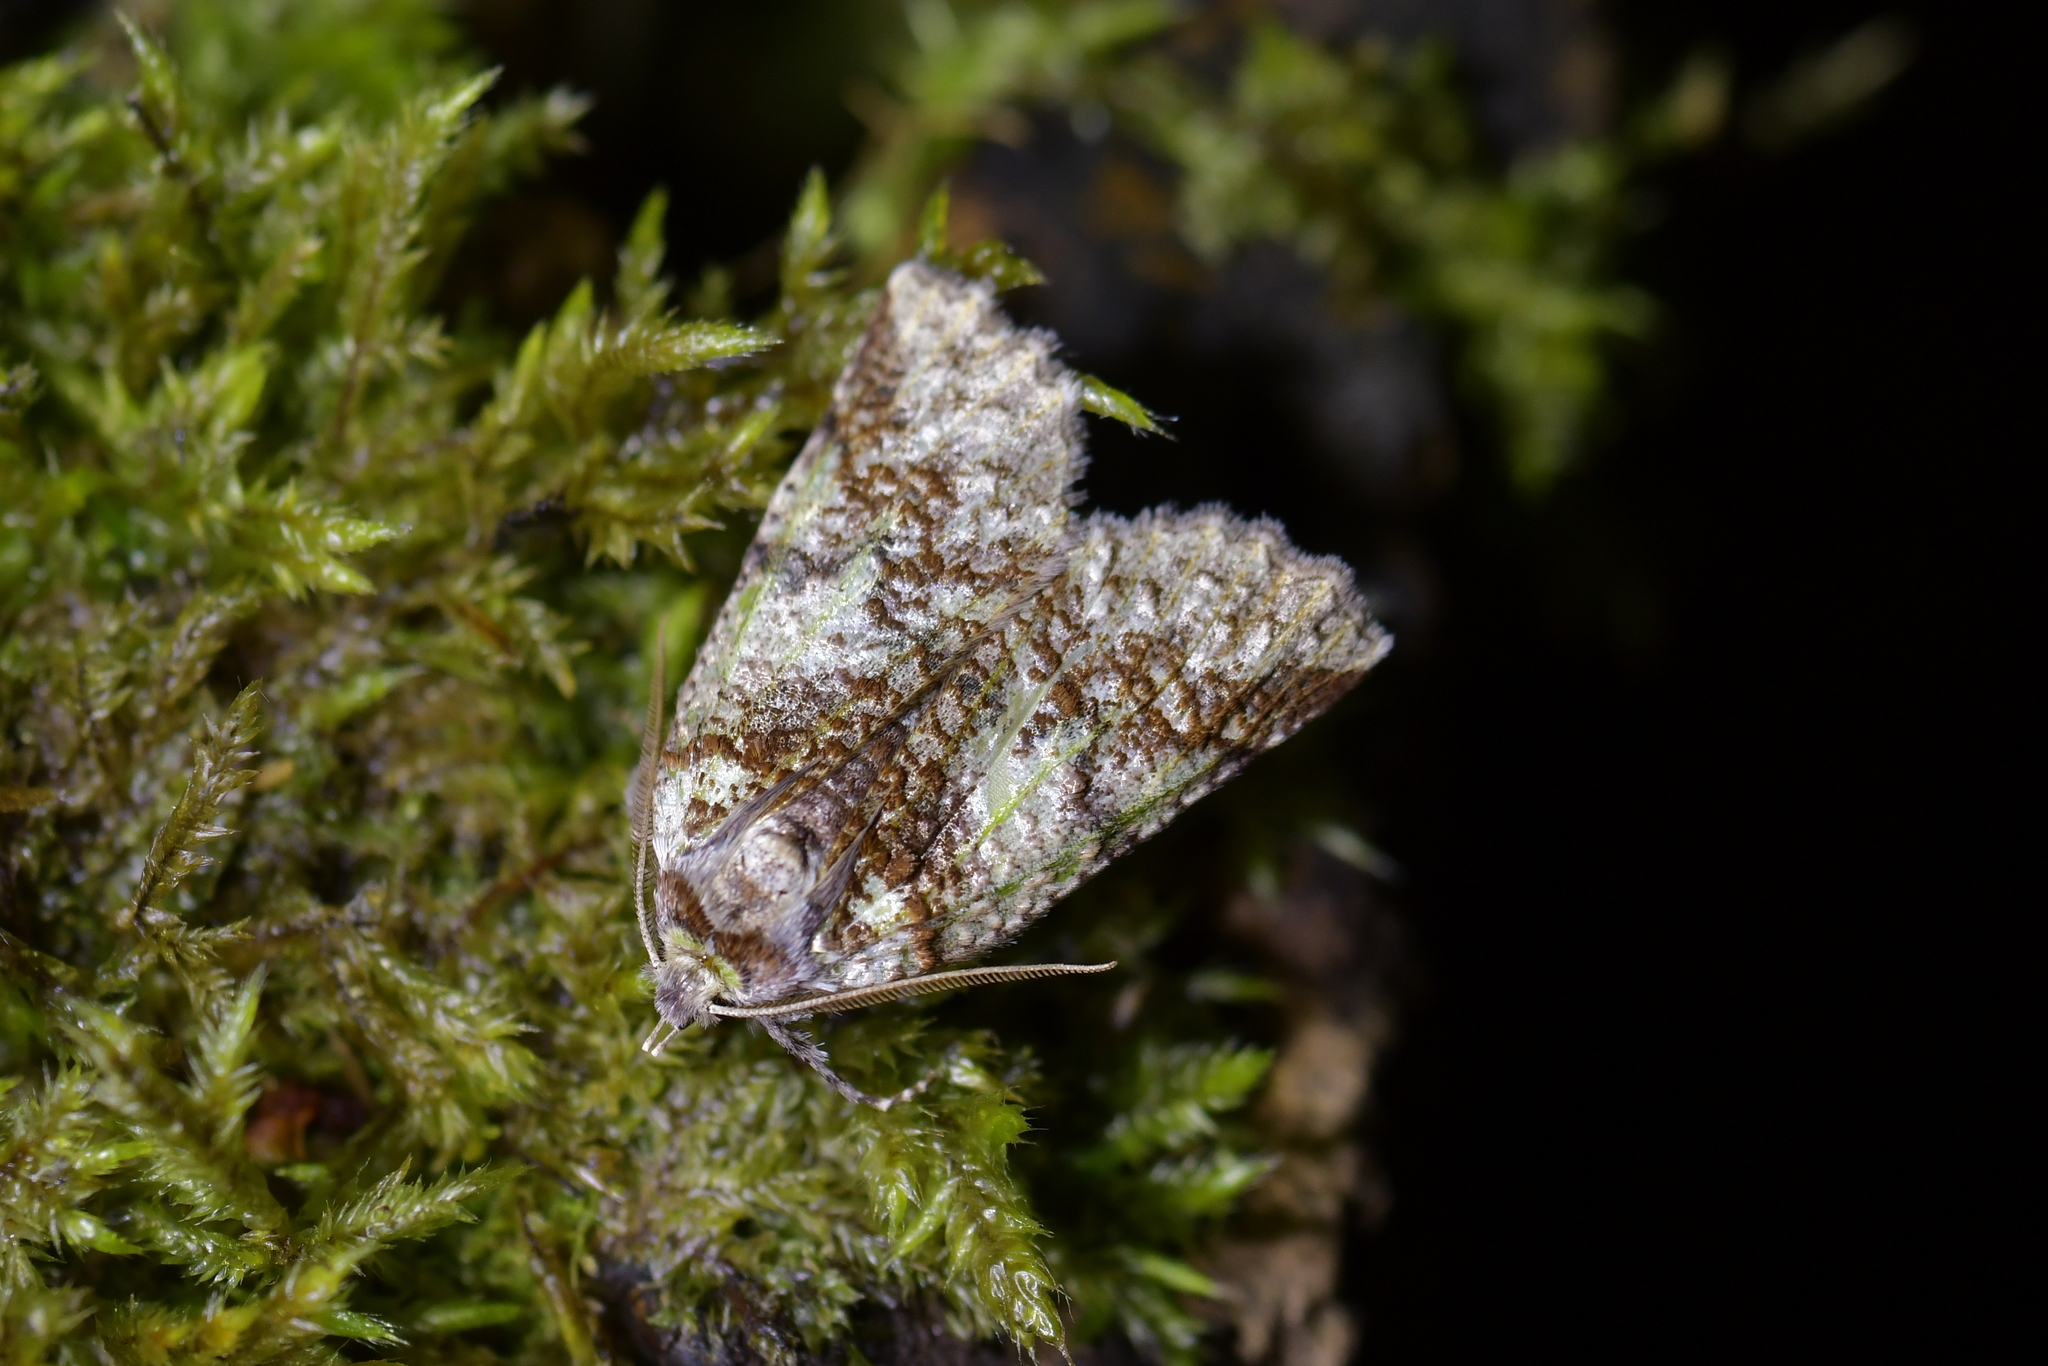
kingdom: Animalia
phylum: Arthropoda
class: Insecta
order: Lepidoptera
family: Geometridae
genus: Declana
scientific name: Declana floccosa
